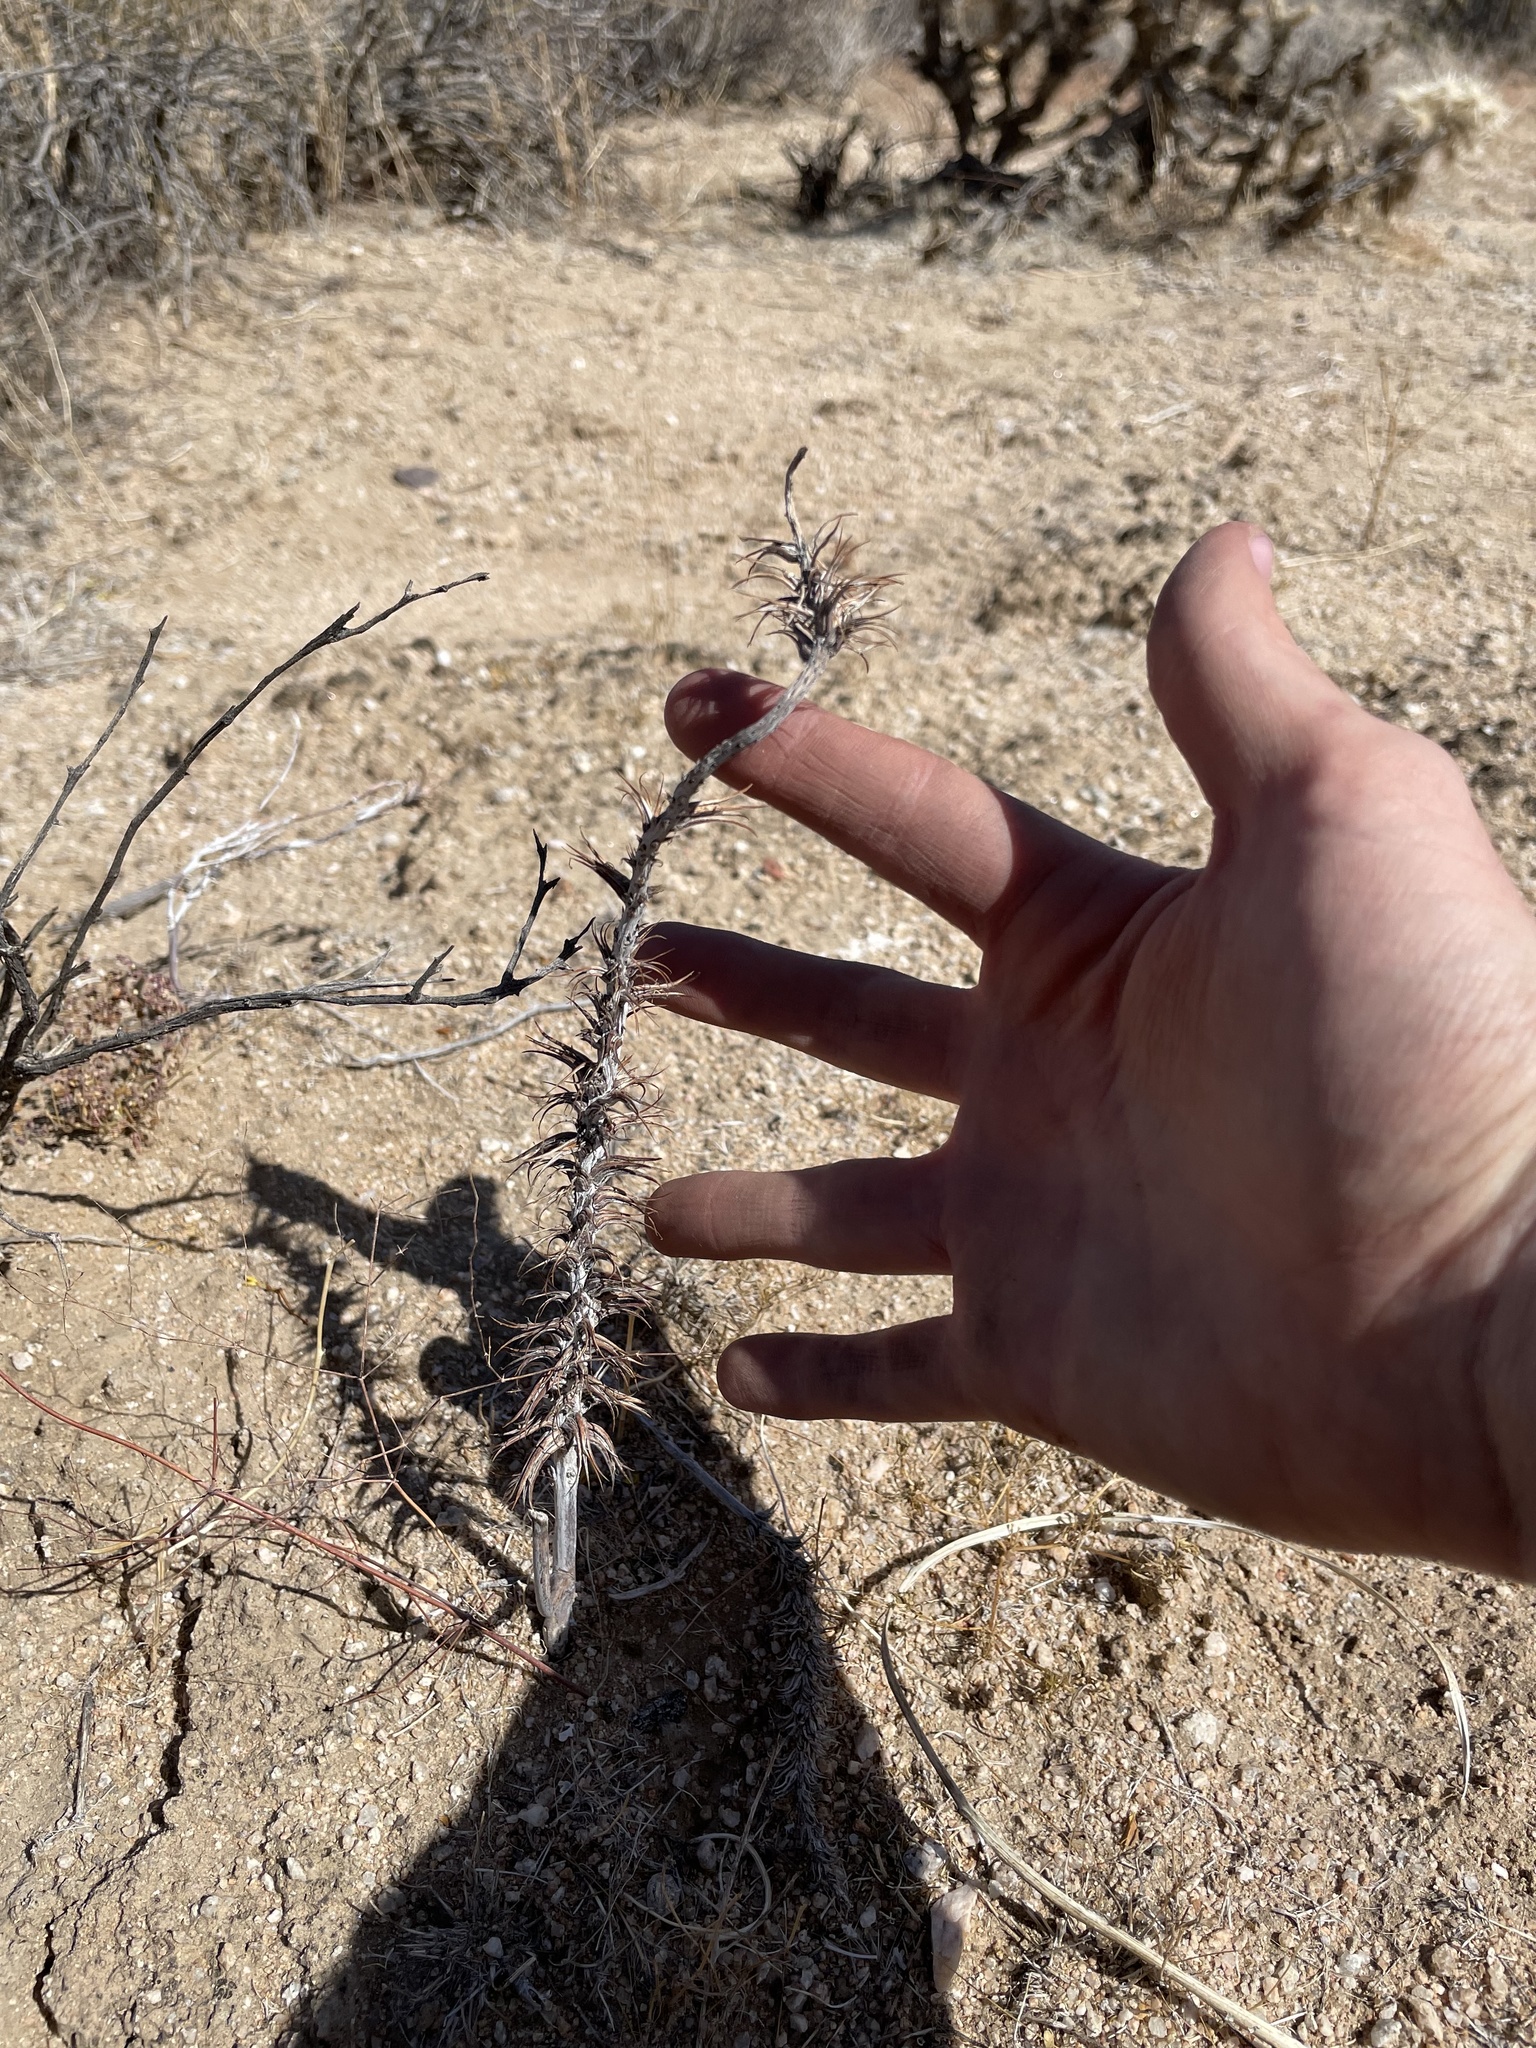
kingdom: Plantae
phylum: Tracheophyta
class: Magnoliopsida
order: Myrtales
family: Onagraceae
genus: Eremothera
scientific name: Eremothera boothii
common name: Booth's evening primrose
